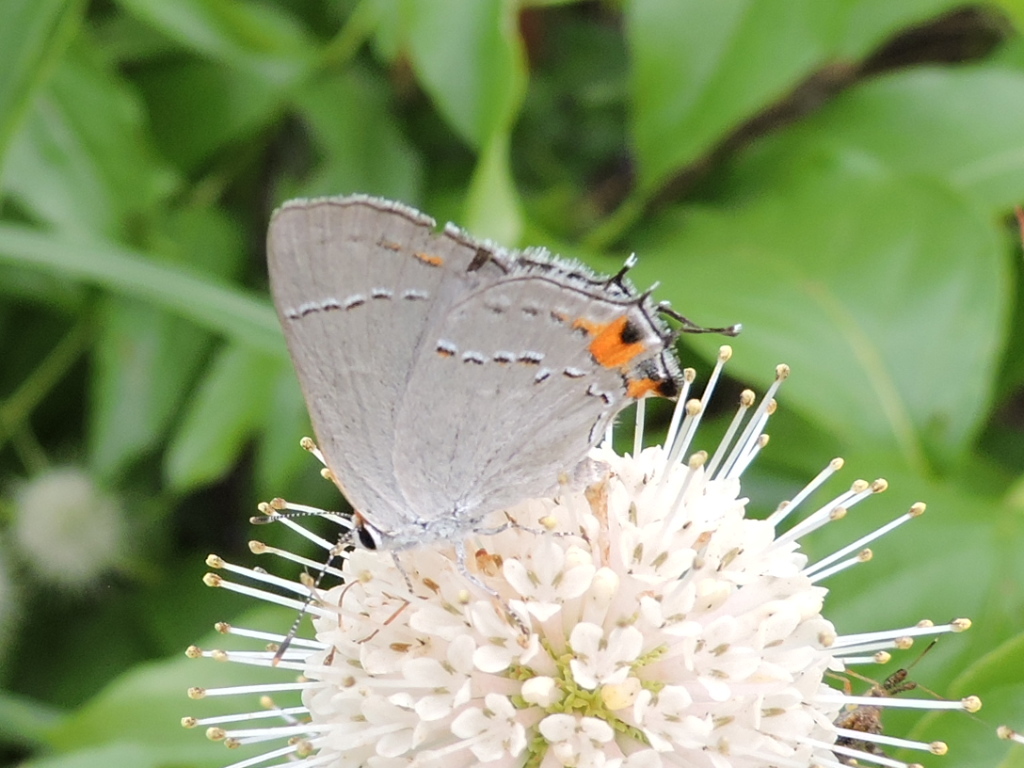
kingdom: Animalia
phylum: Arthropoda
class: Insecta
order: Lepidoptera
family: Lycaenidae
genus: Strymon
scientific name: Strymon melinus
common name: Gray hairstreak
